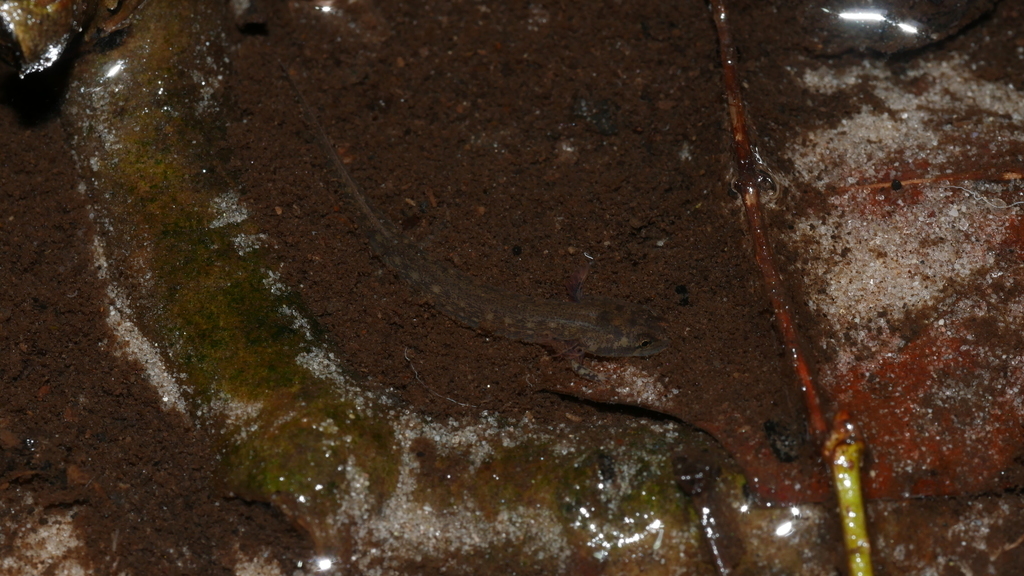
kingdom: Animalia
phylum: Chordata
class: Amphibia
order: Caudata
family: Plethodontidae
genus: Eurycea
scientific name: Eurycea cirrigera
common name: Southern two-lined salamander
